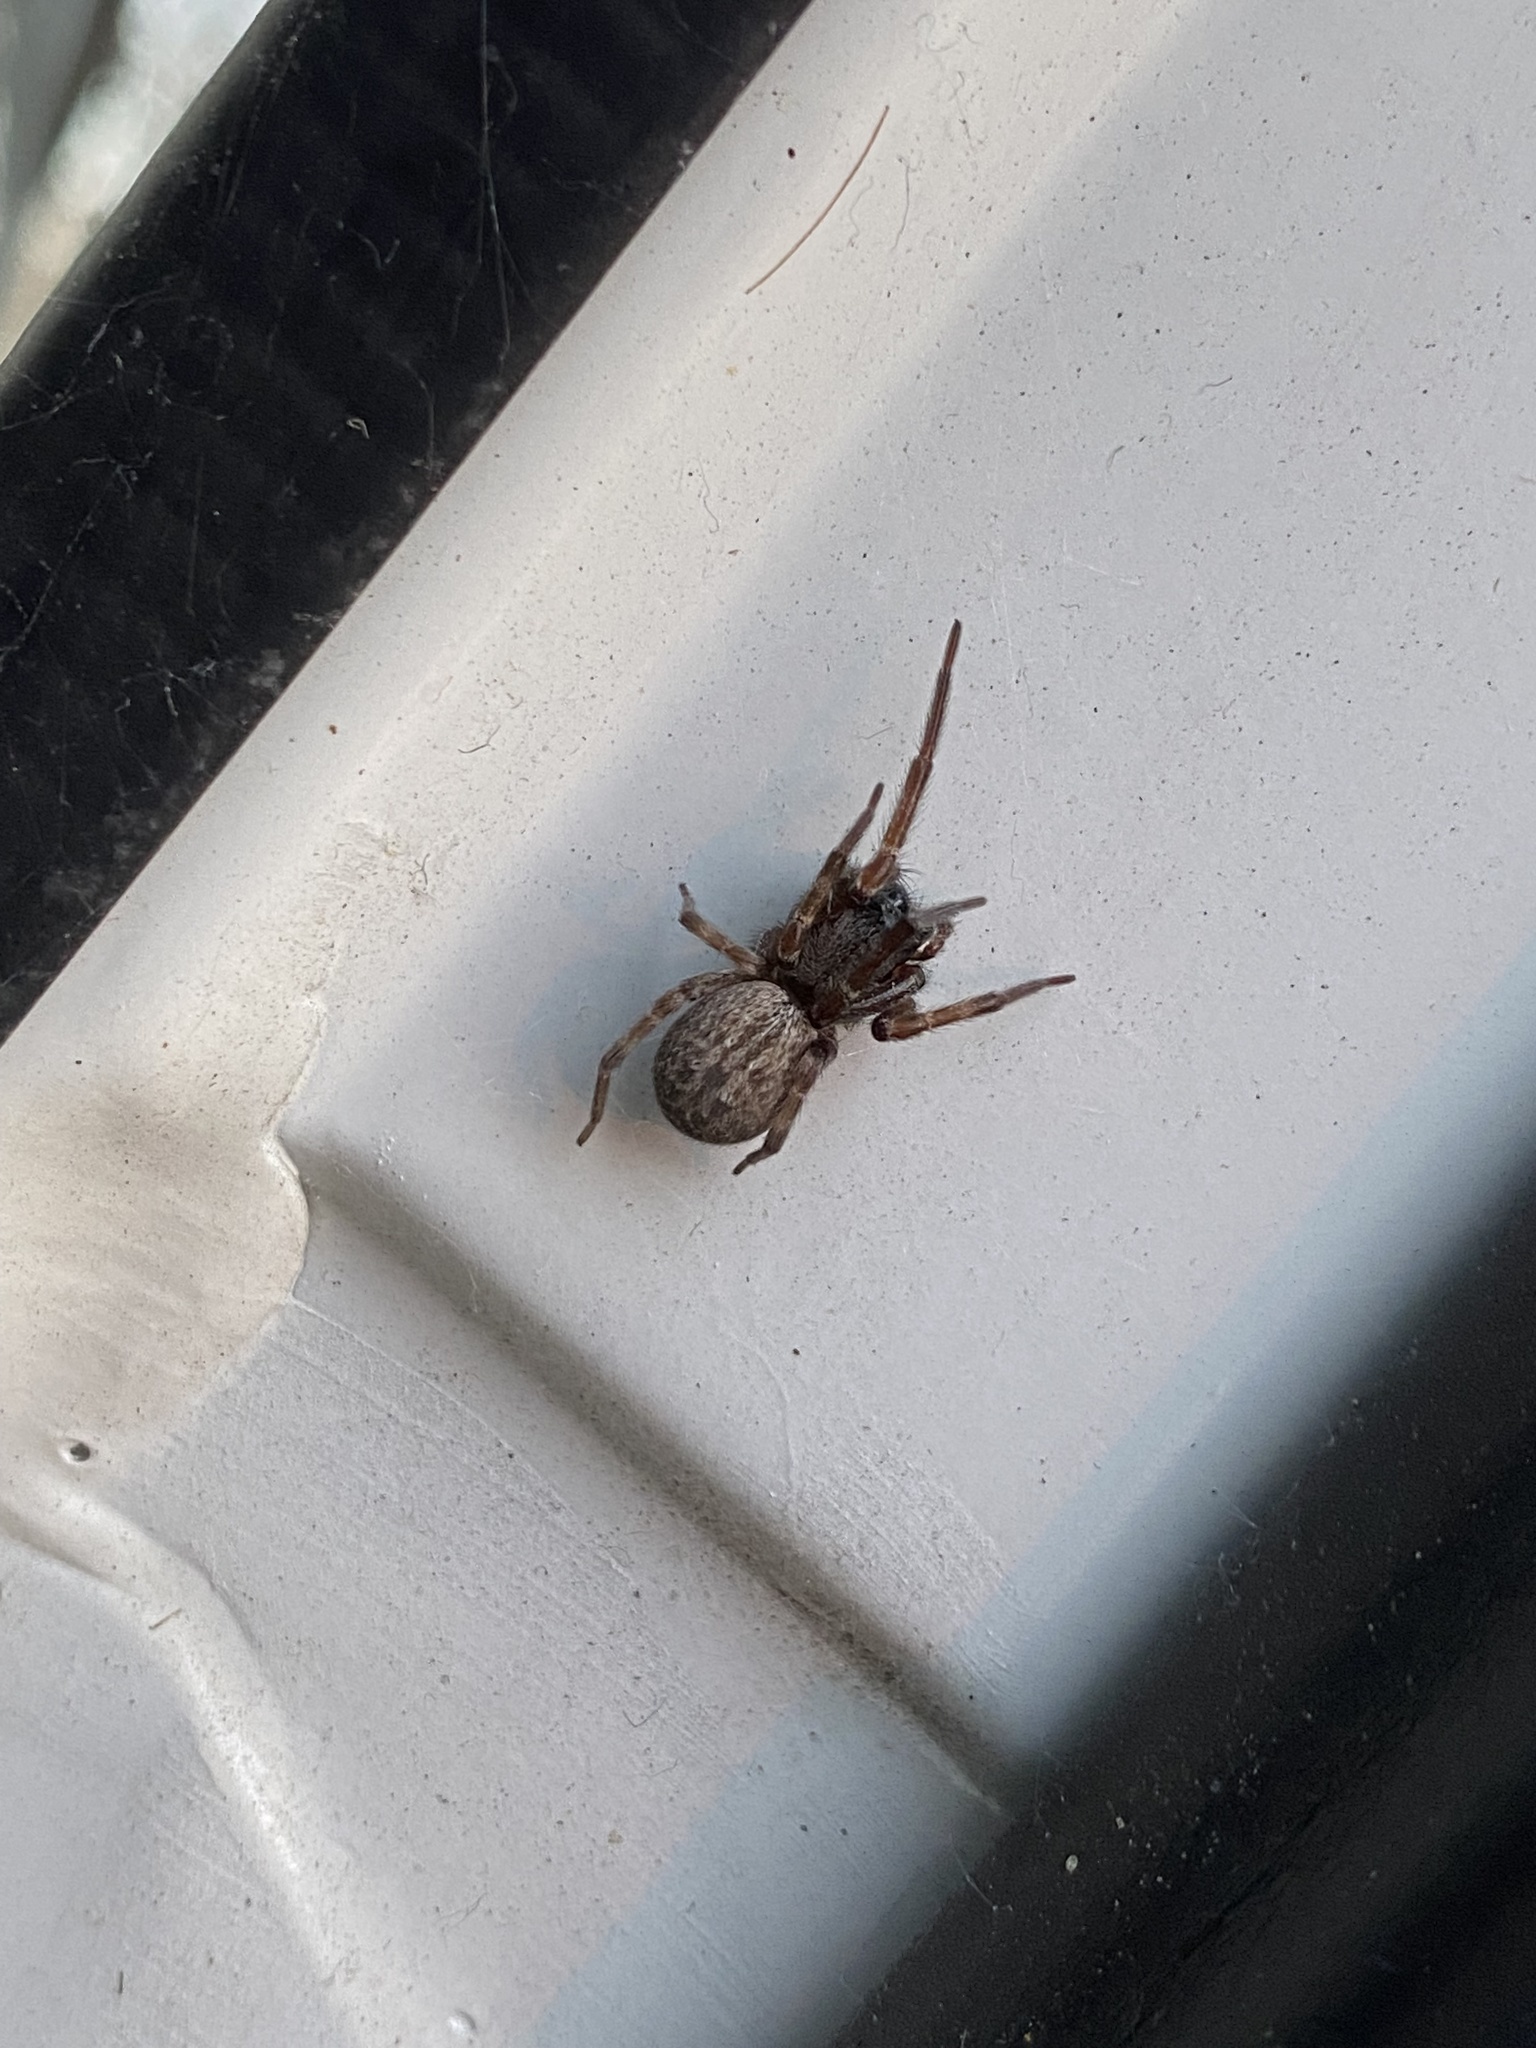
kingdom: Animalia
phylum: Arthropoda
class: Arachnida
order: Araneae
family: Desidae
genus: Badumna
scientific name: Badumna longinqua
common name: Gray house spider
